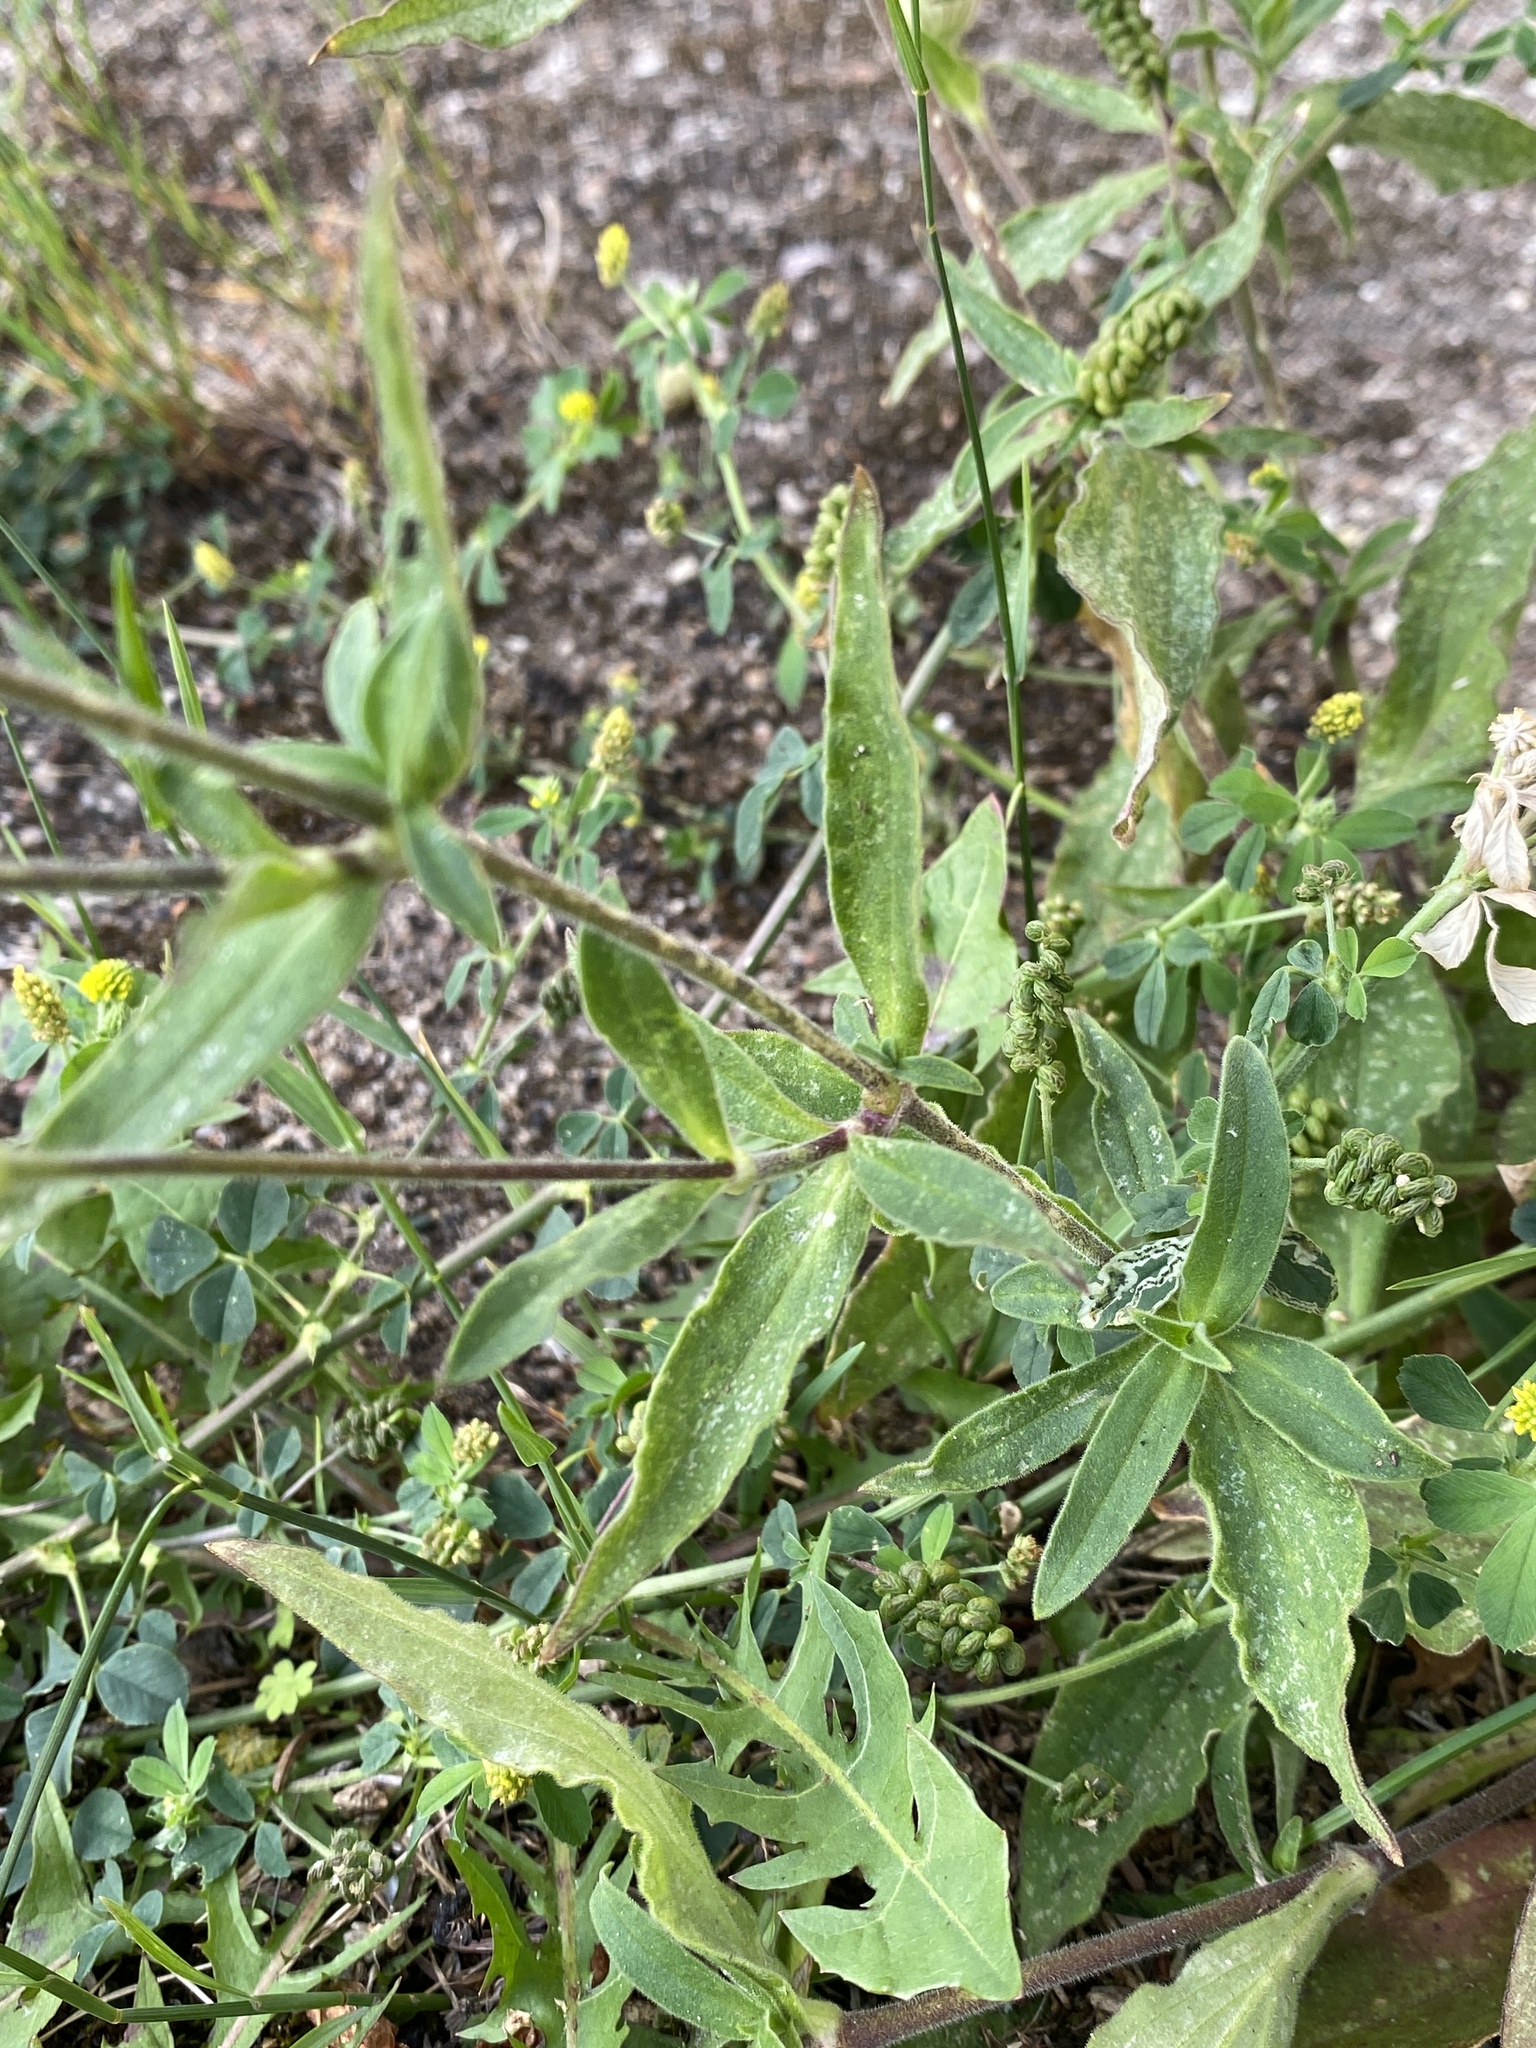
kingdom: Plantae
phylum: Tracheophyta
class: Magnoliopsida
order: Caryophyllales
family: Caryophyllaceae
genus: Silene
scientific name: Silene latifolia
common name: White campion
